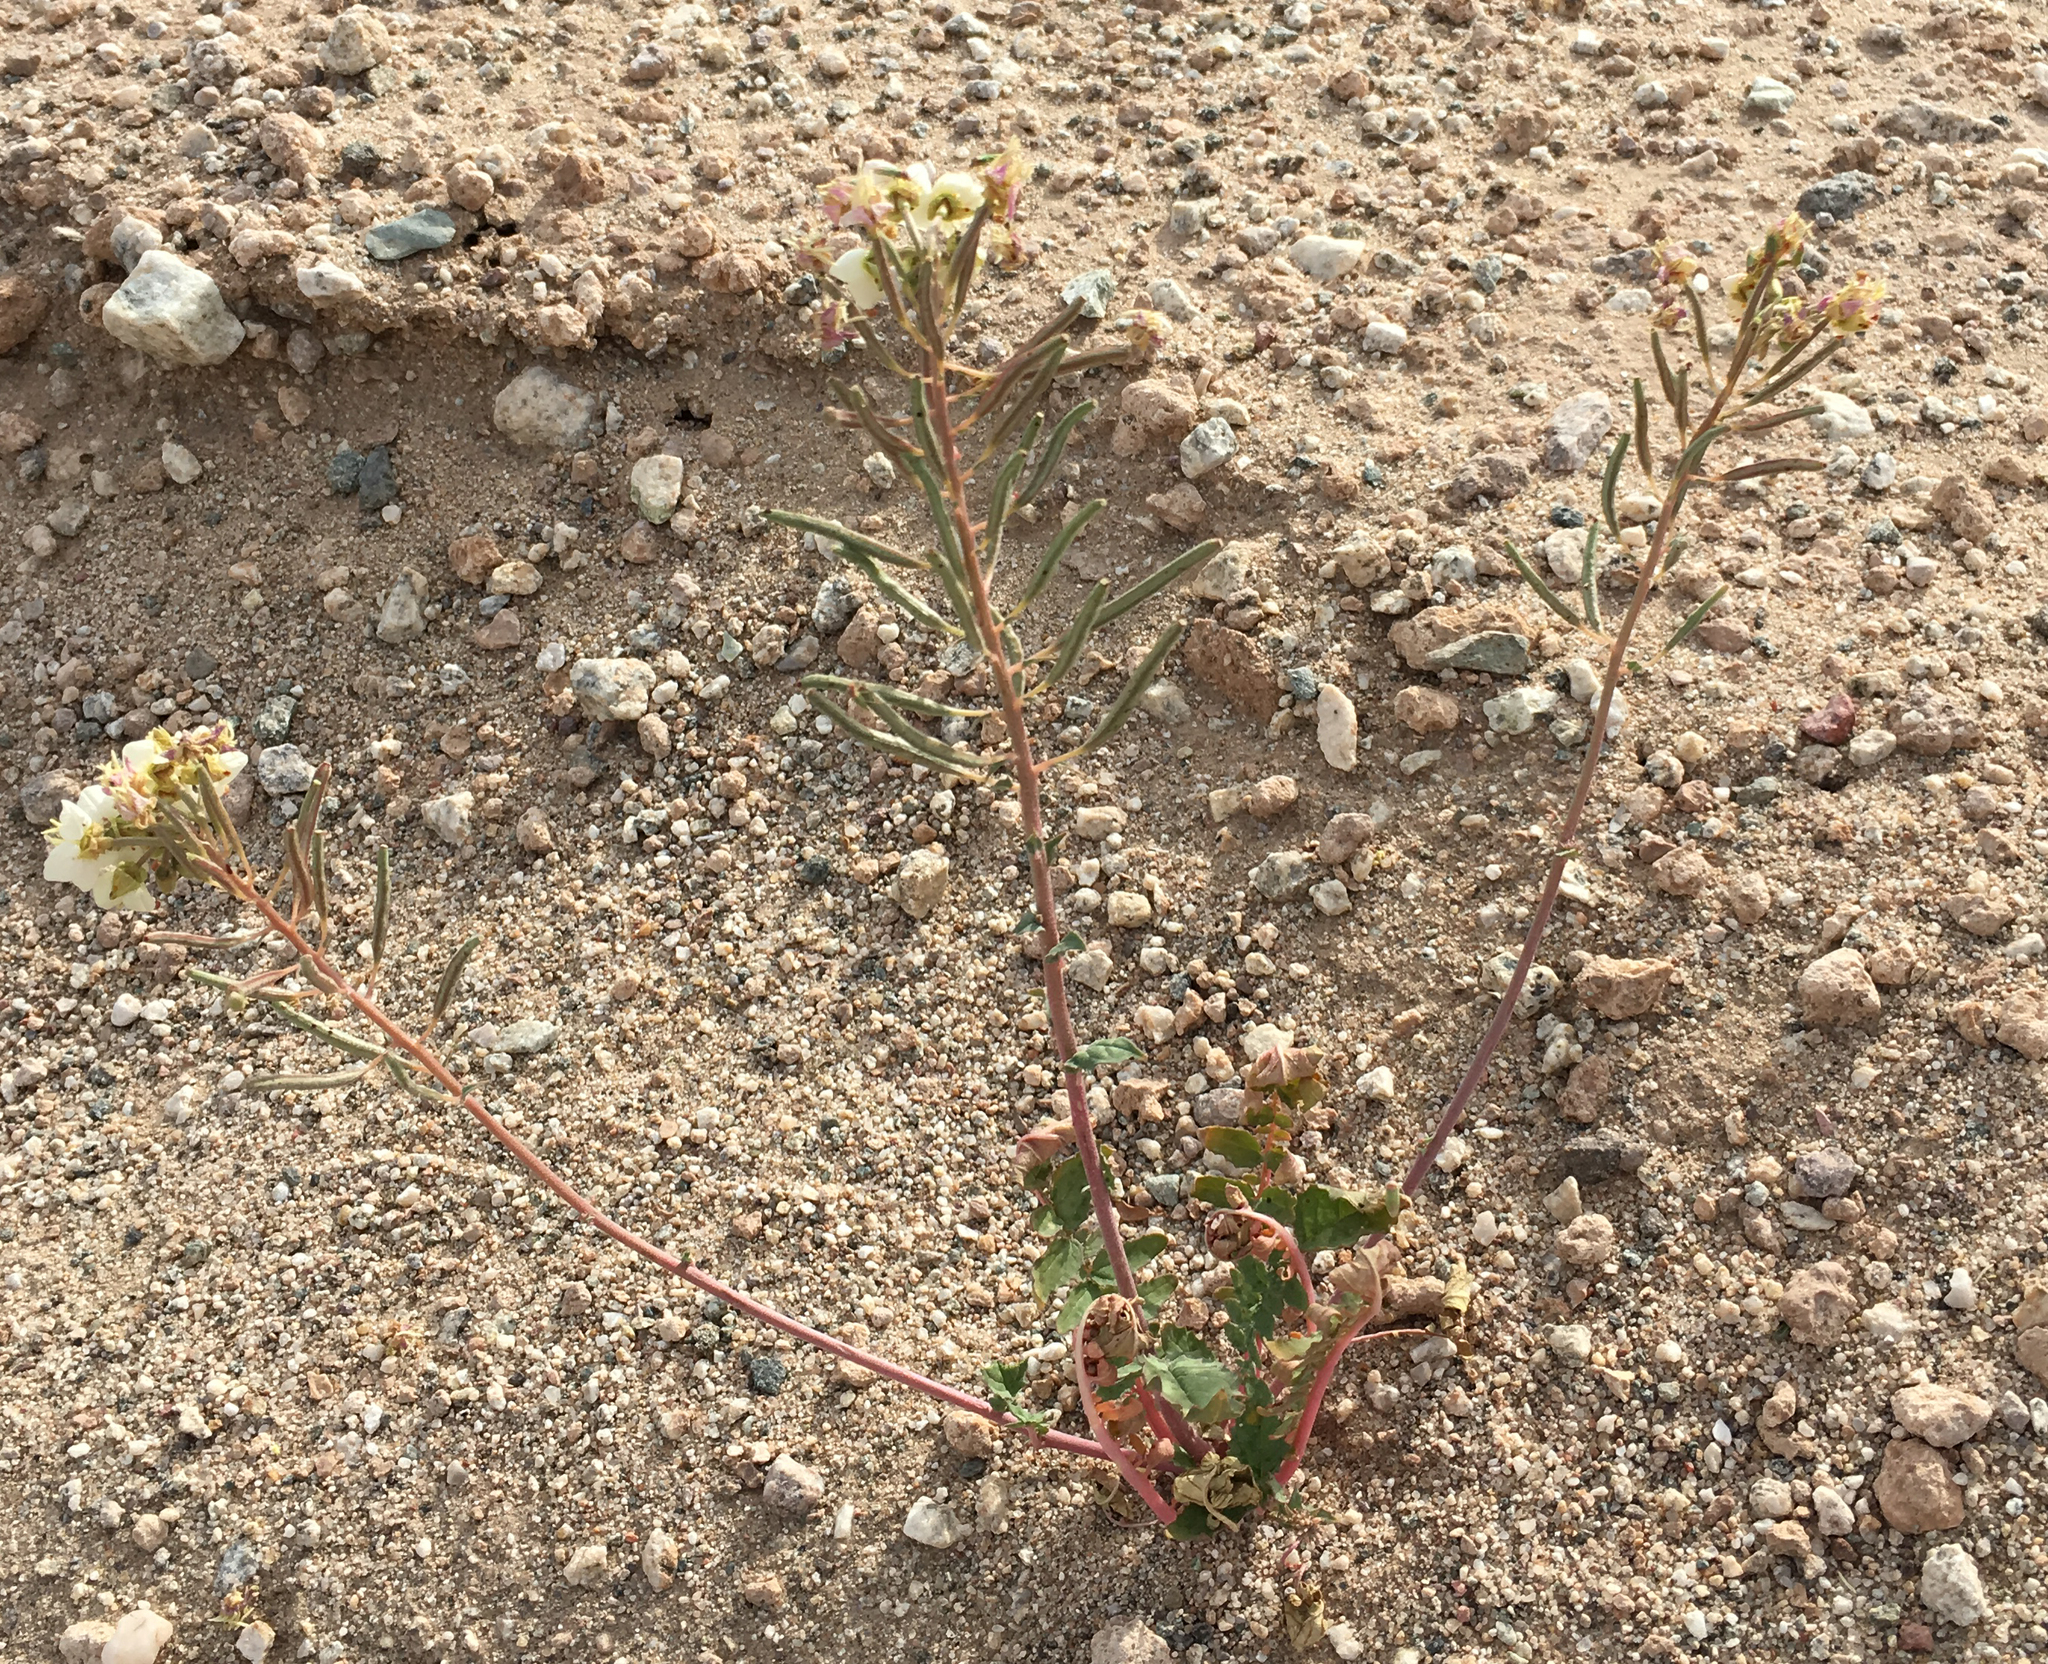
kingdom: Plantae
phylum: Tracheophyta
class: Magnoliopsida
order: Myrtales
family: Onagraceae
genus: Chylismia
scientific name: Chylismia claviformis
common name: Browneyes
